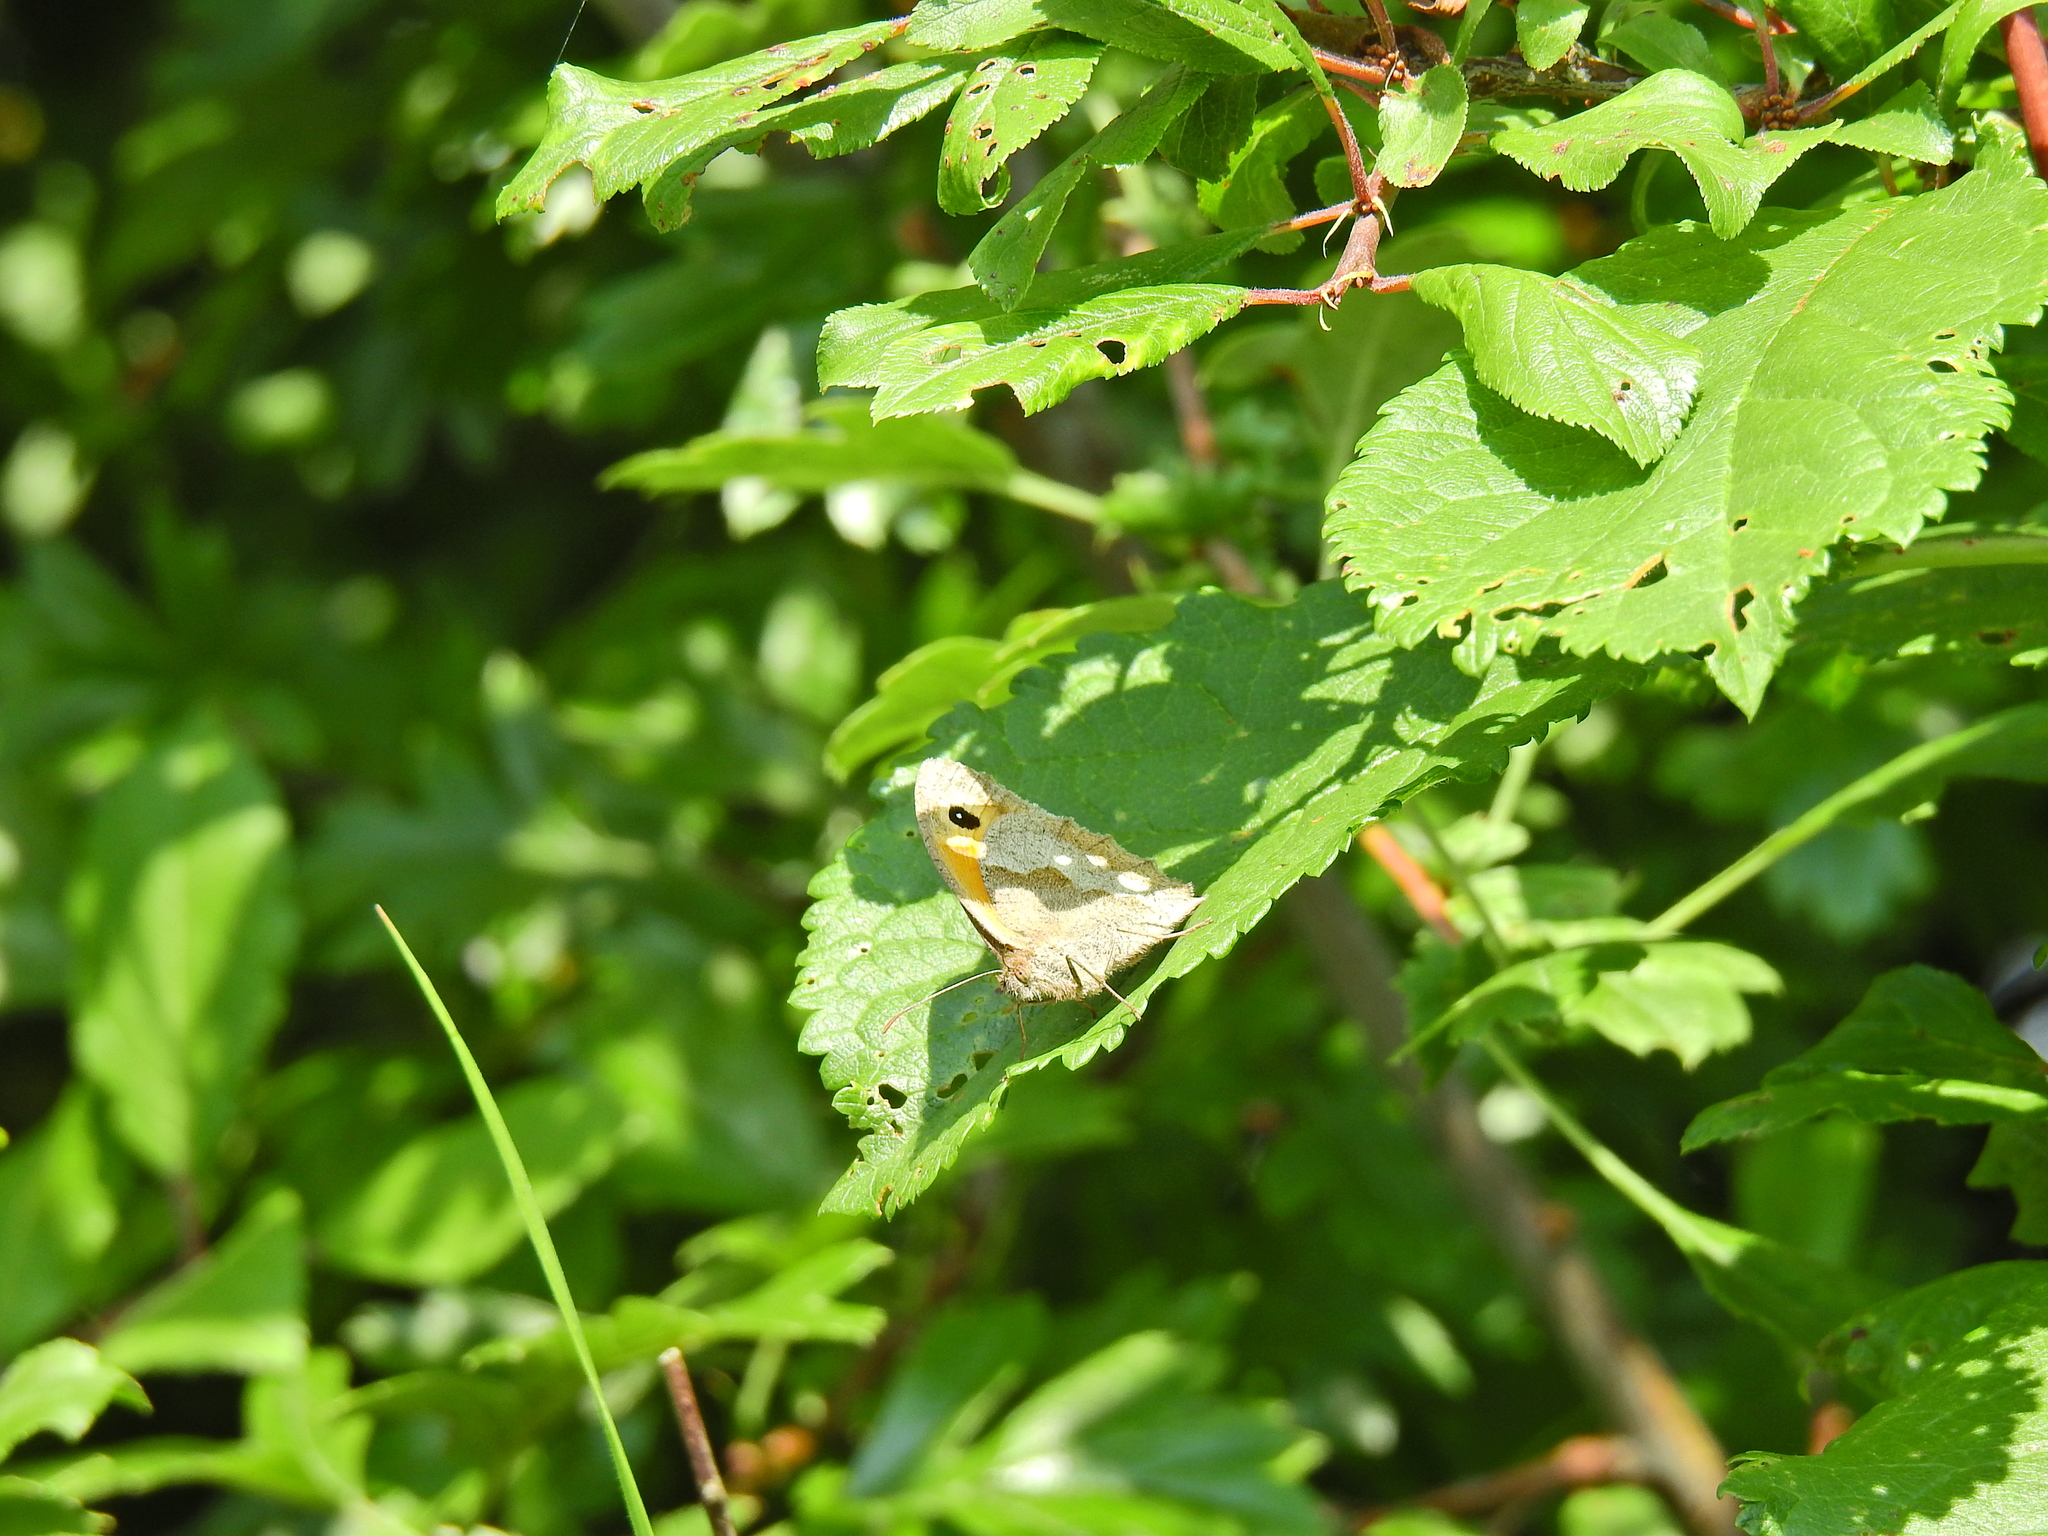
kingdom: Animalia
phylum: Arthropoda
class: Insecta
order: Lepidoptera
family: Nymphalidae
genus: Maniola
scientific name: Maniola jurtina
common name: Meadow brown
